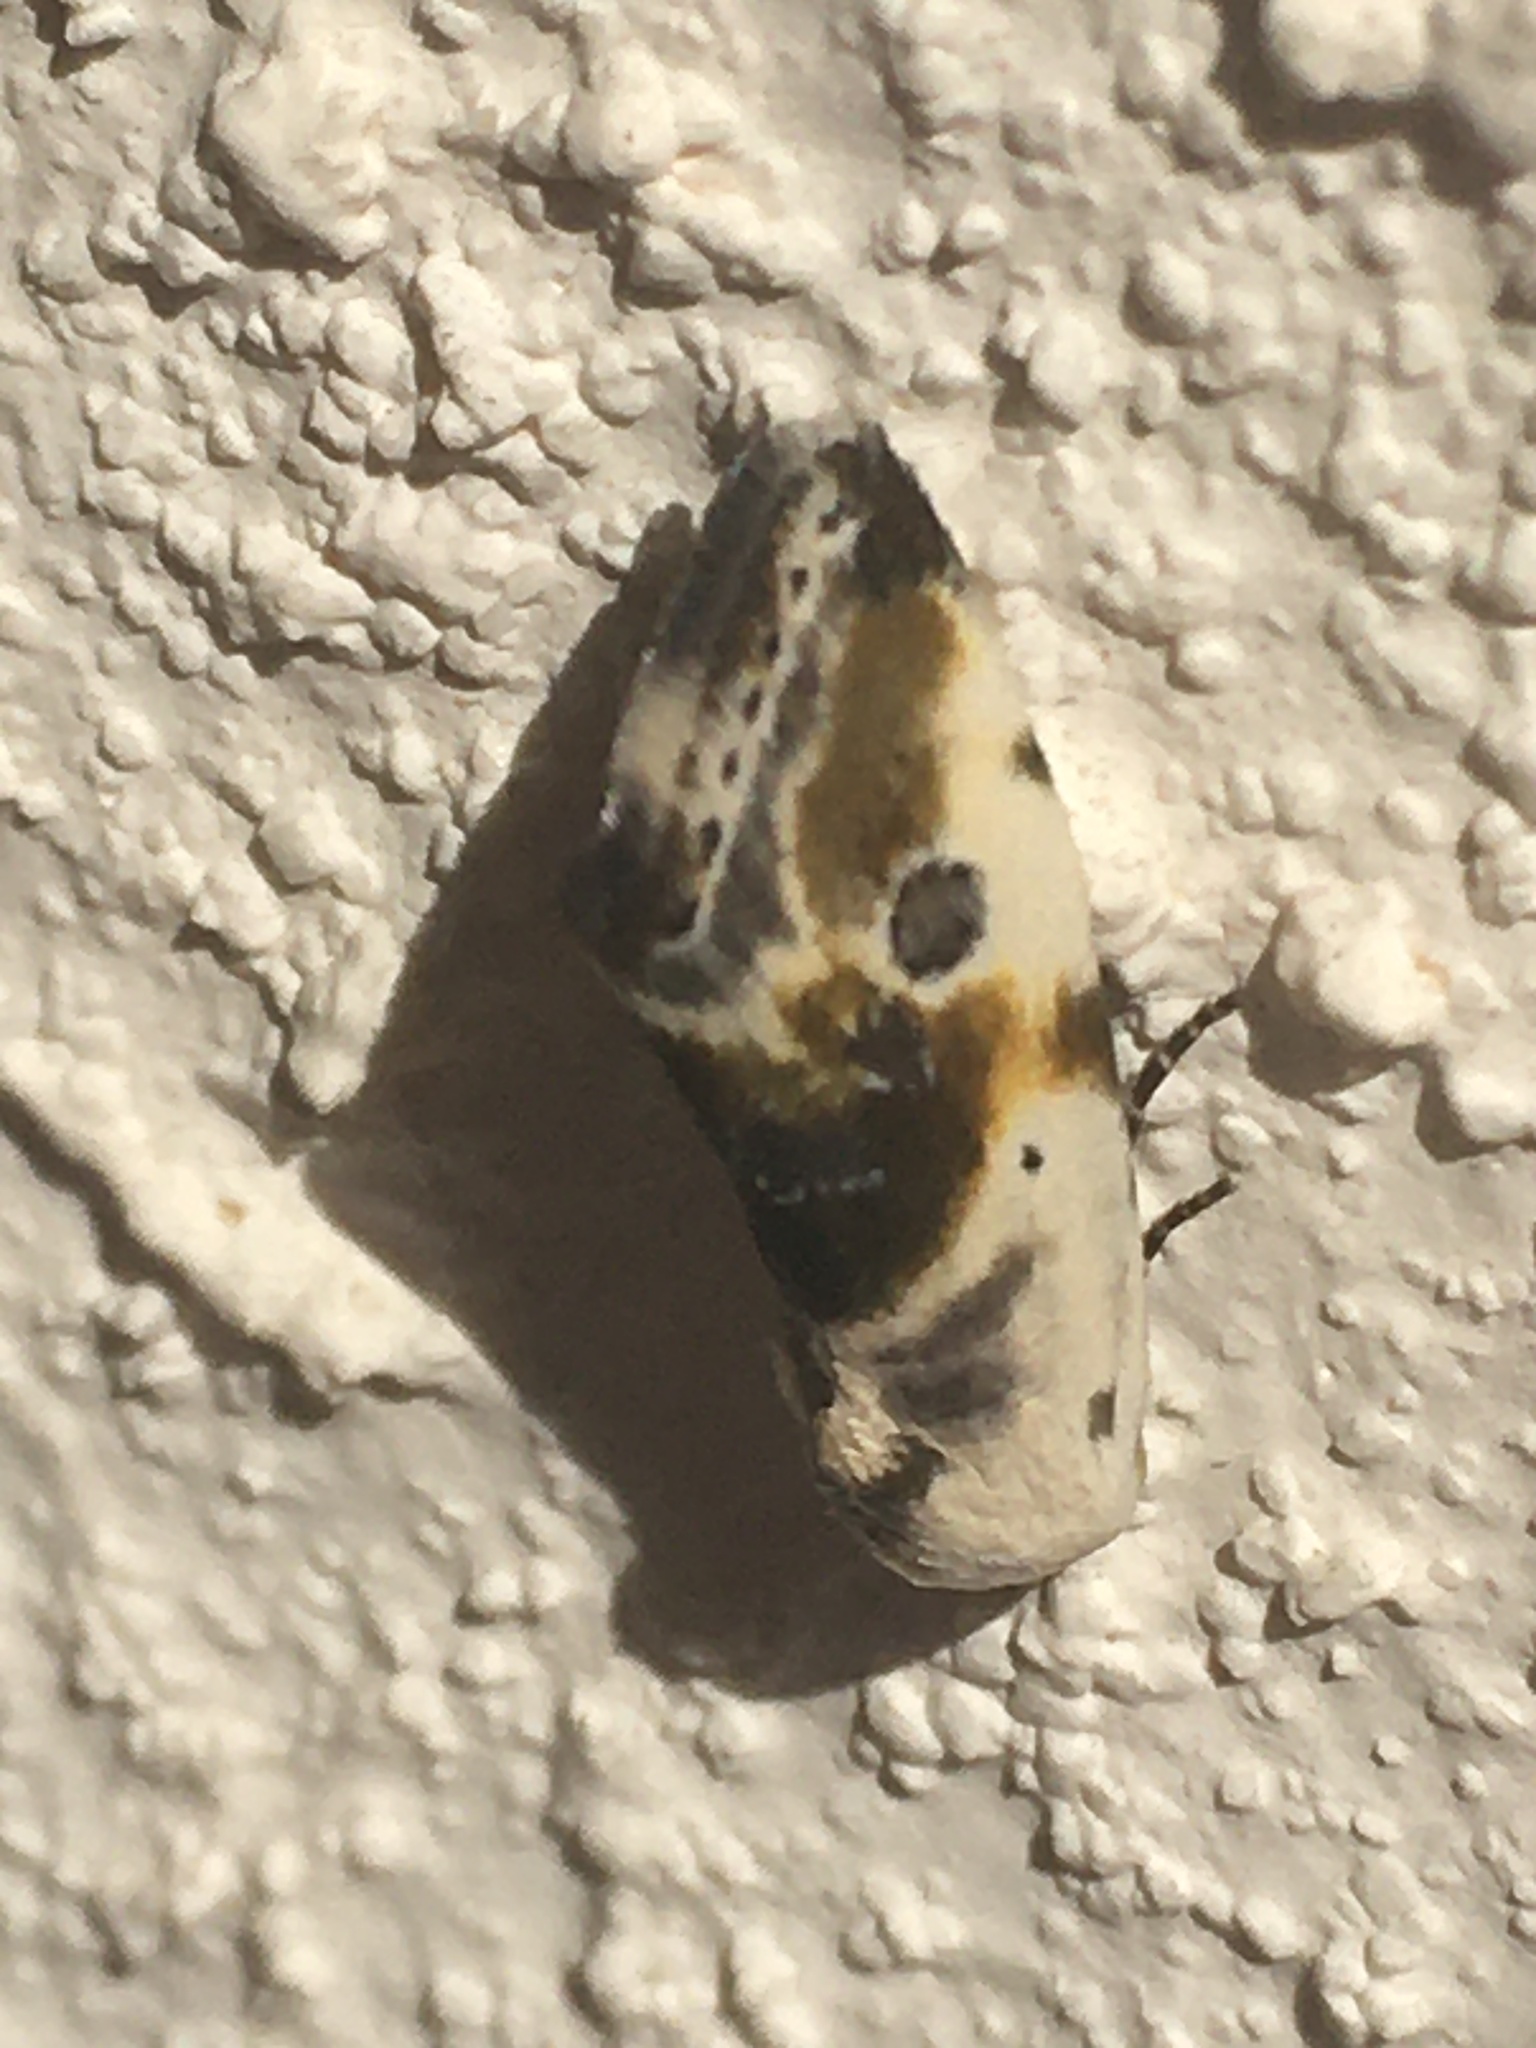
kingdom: Animalia
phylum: Arthropoda
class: Insecta
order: Lepidoptera
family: Noctuidae
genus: Acontia
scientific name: Acontia candefacta
